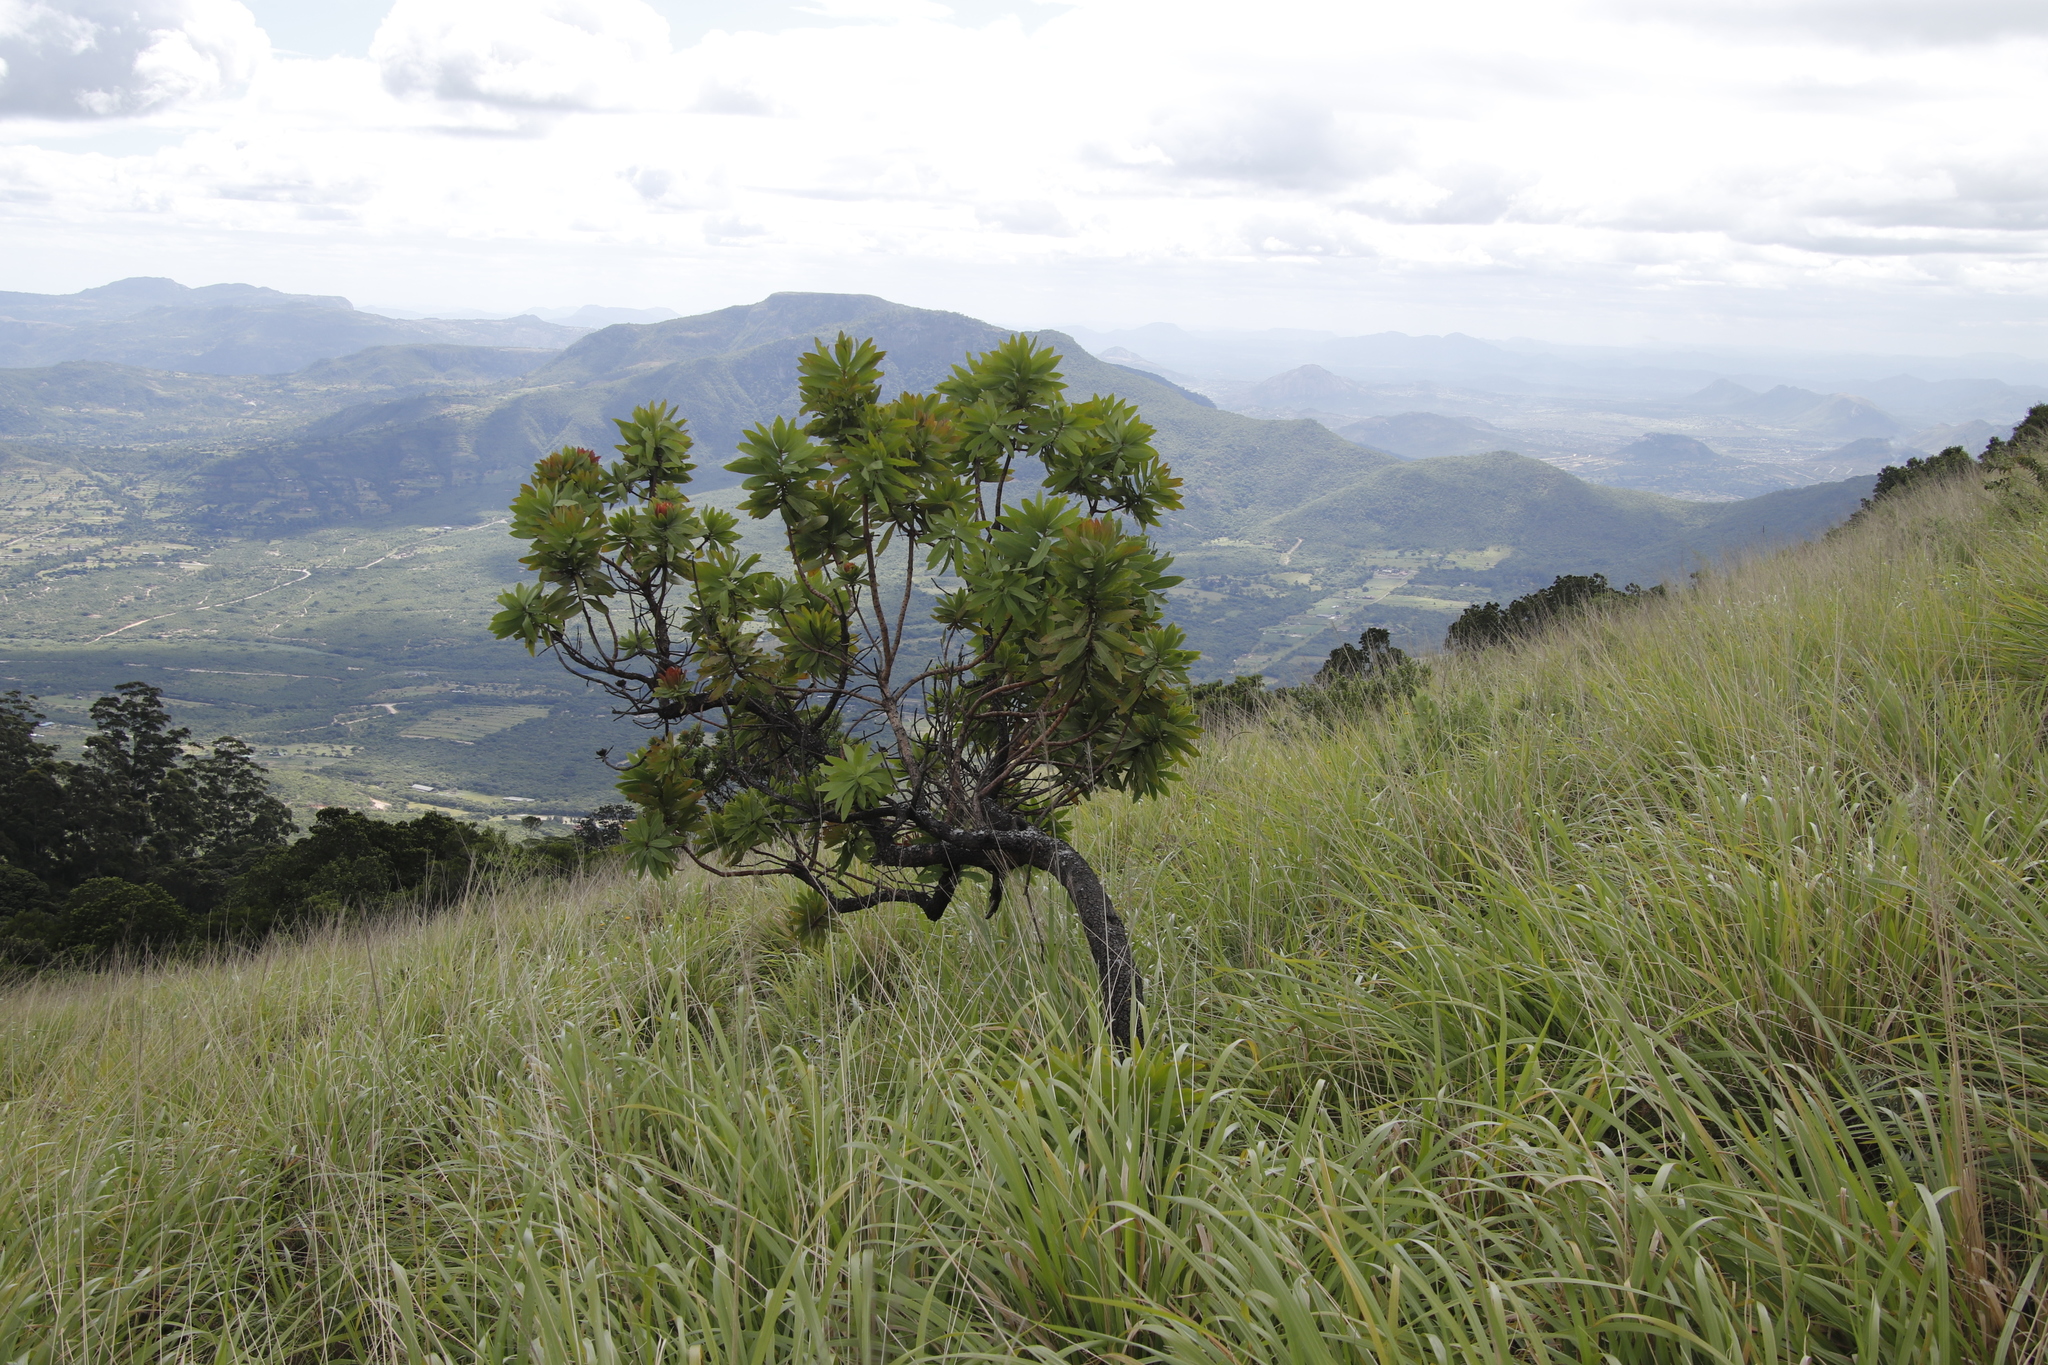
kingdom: Plantae
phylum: Tracheophyta
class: Magnoliopsida
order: Proteales
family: Proteaceae
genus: Protea
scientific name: Protea caffra
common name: Common sugarbush
